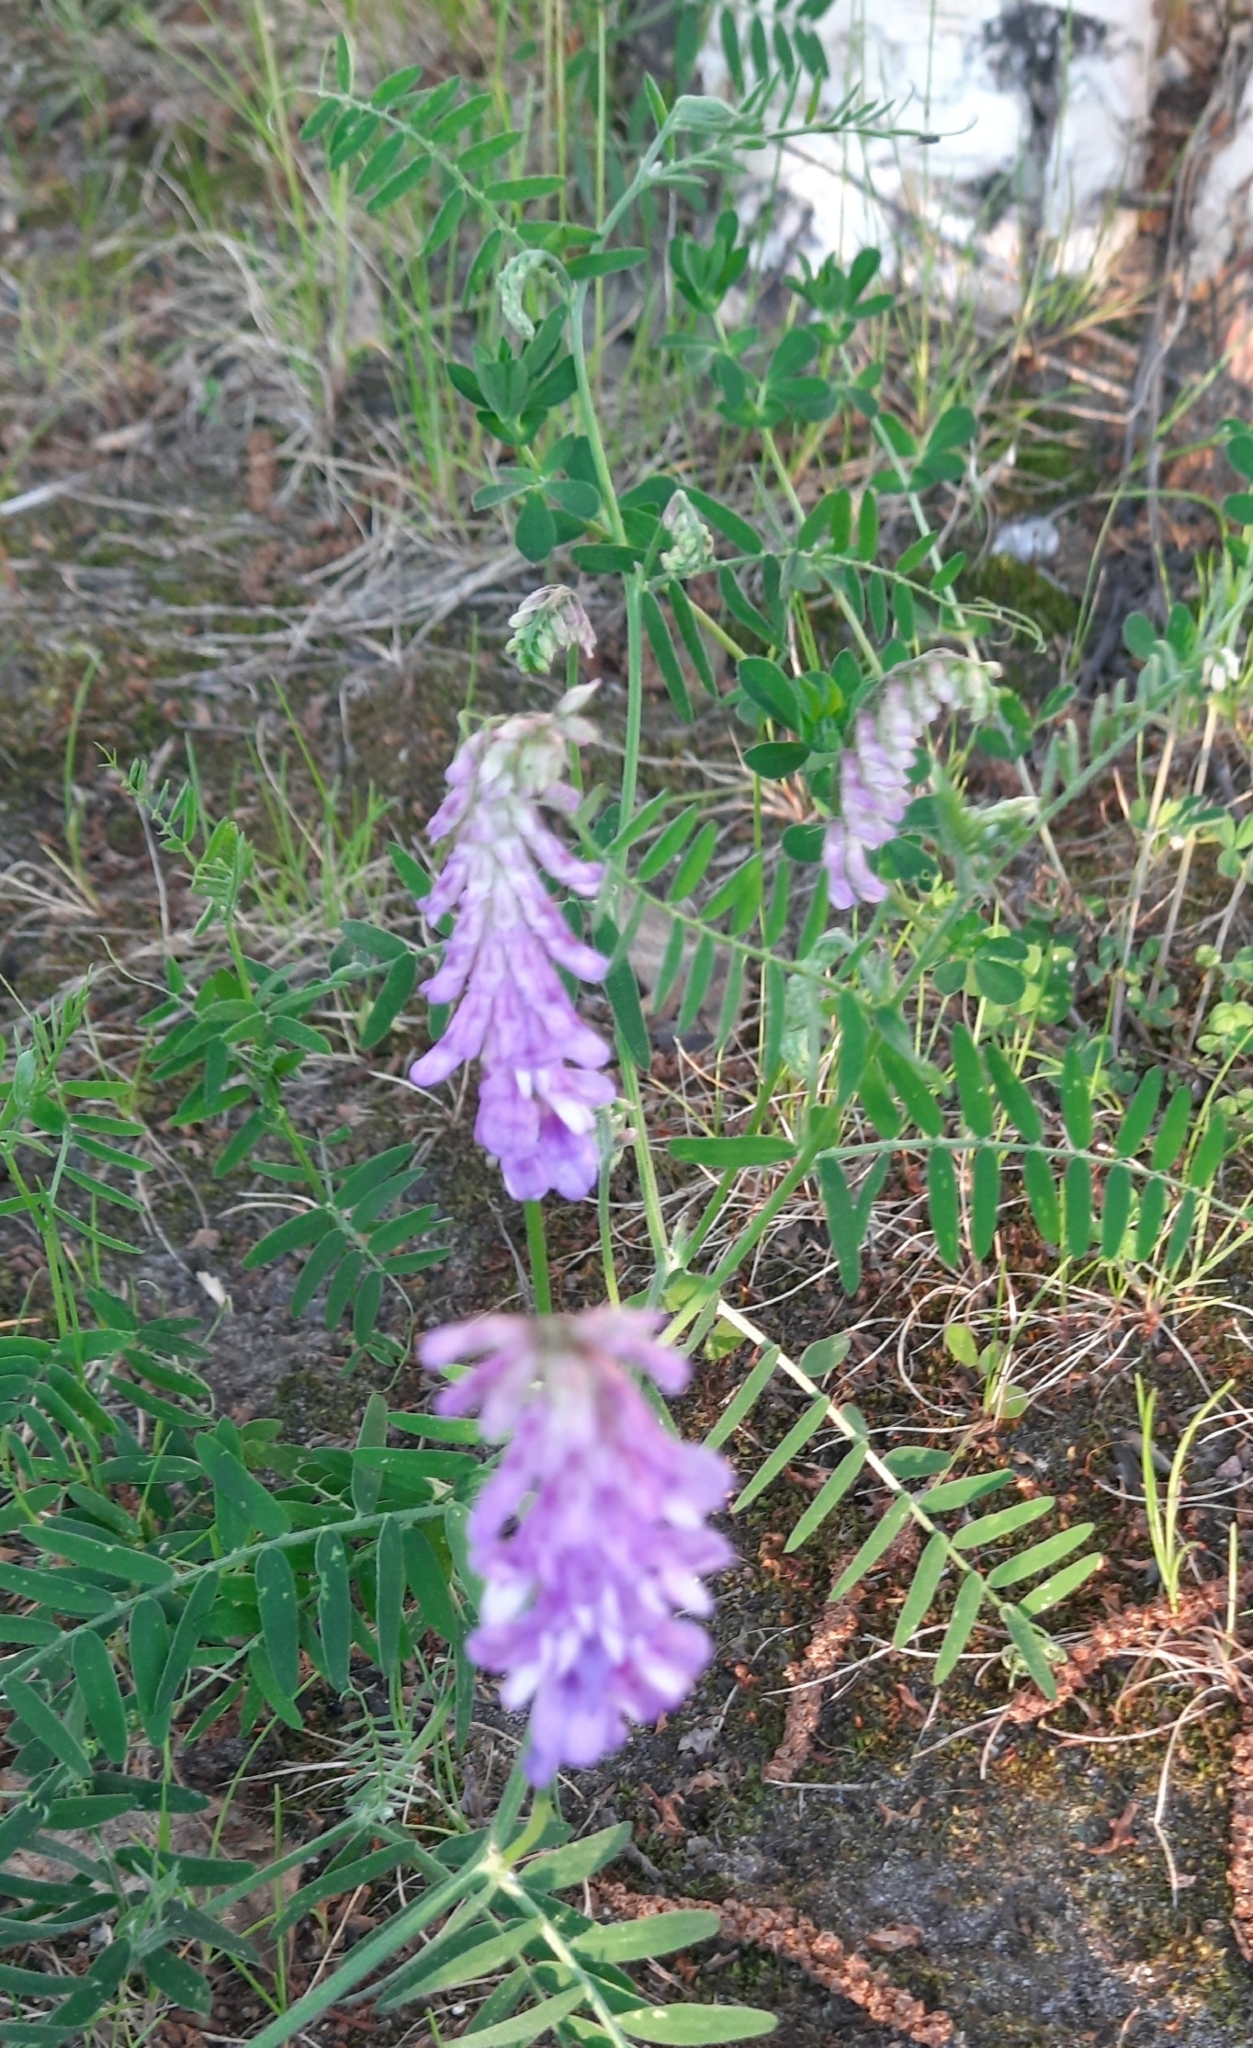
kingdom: Plantae
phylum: Tracheophyta
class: Magnoliopsida
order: Fabales
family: Fabaceae
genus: Vicia
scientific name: Vicia cracca
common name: Bird vetch
